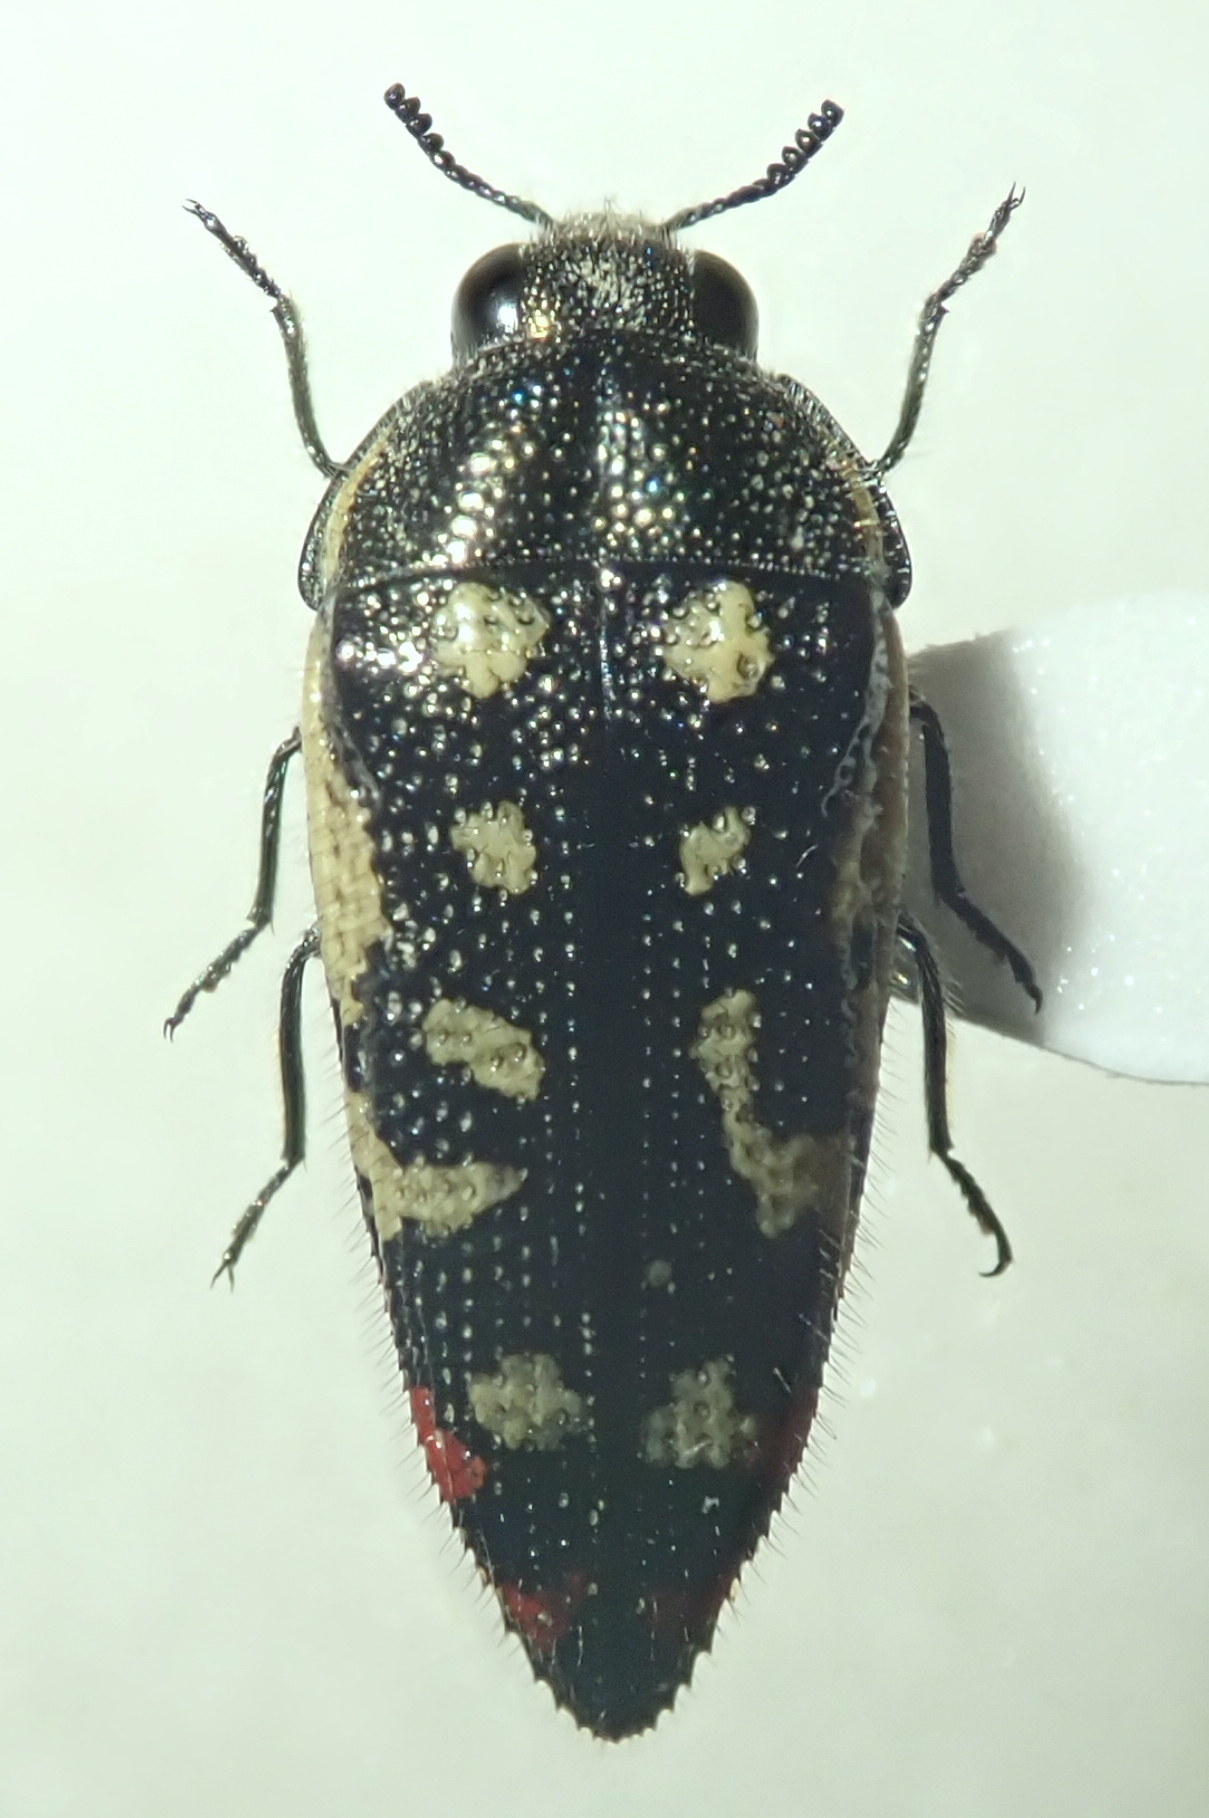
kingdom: Animalia
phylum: Arthropoda
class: Insecta
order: Coleoptera
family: Buprestidae
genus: Acmaeodera
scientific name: Acmaeodera opacula
